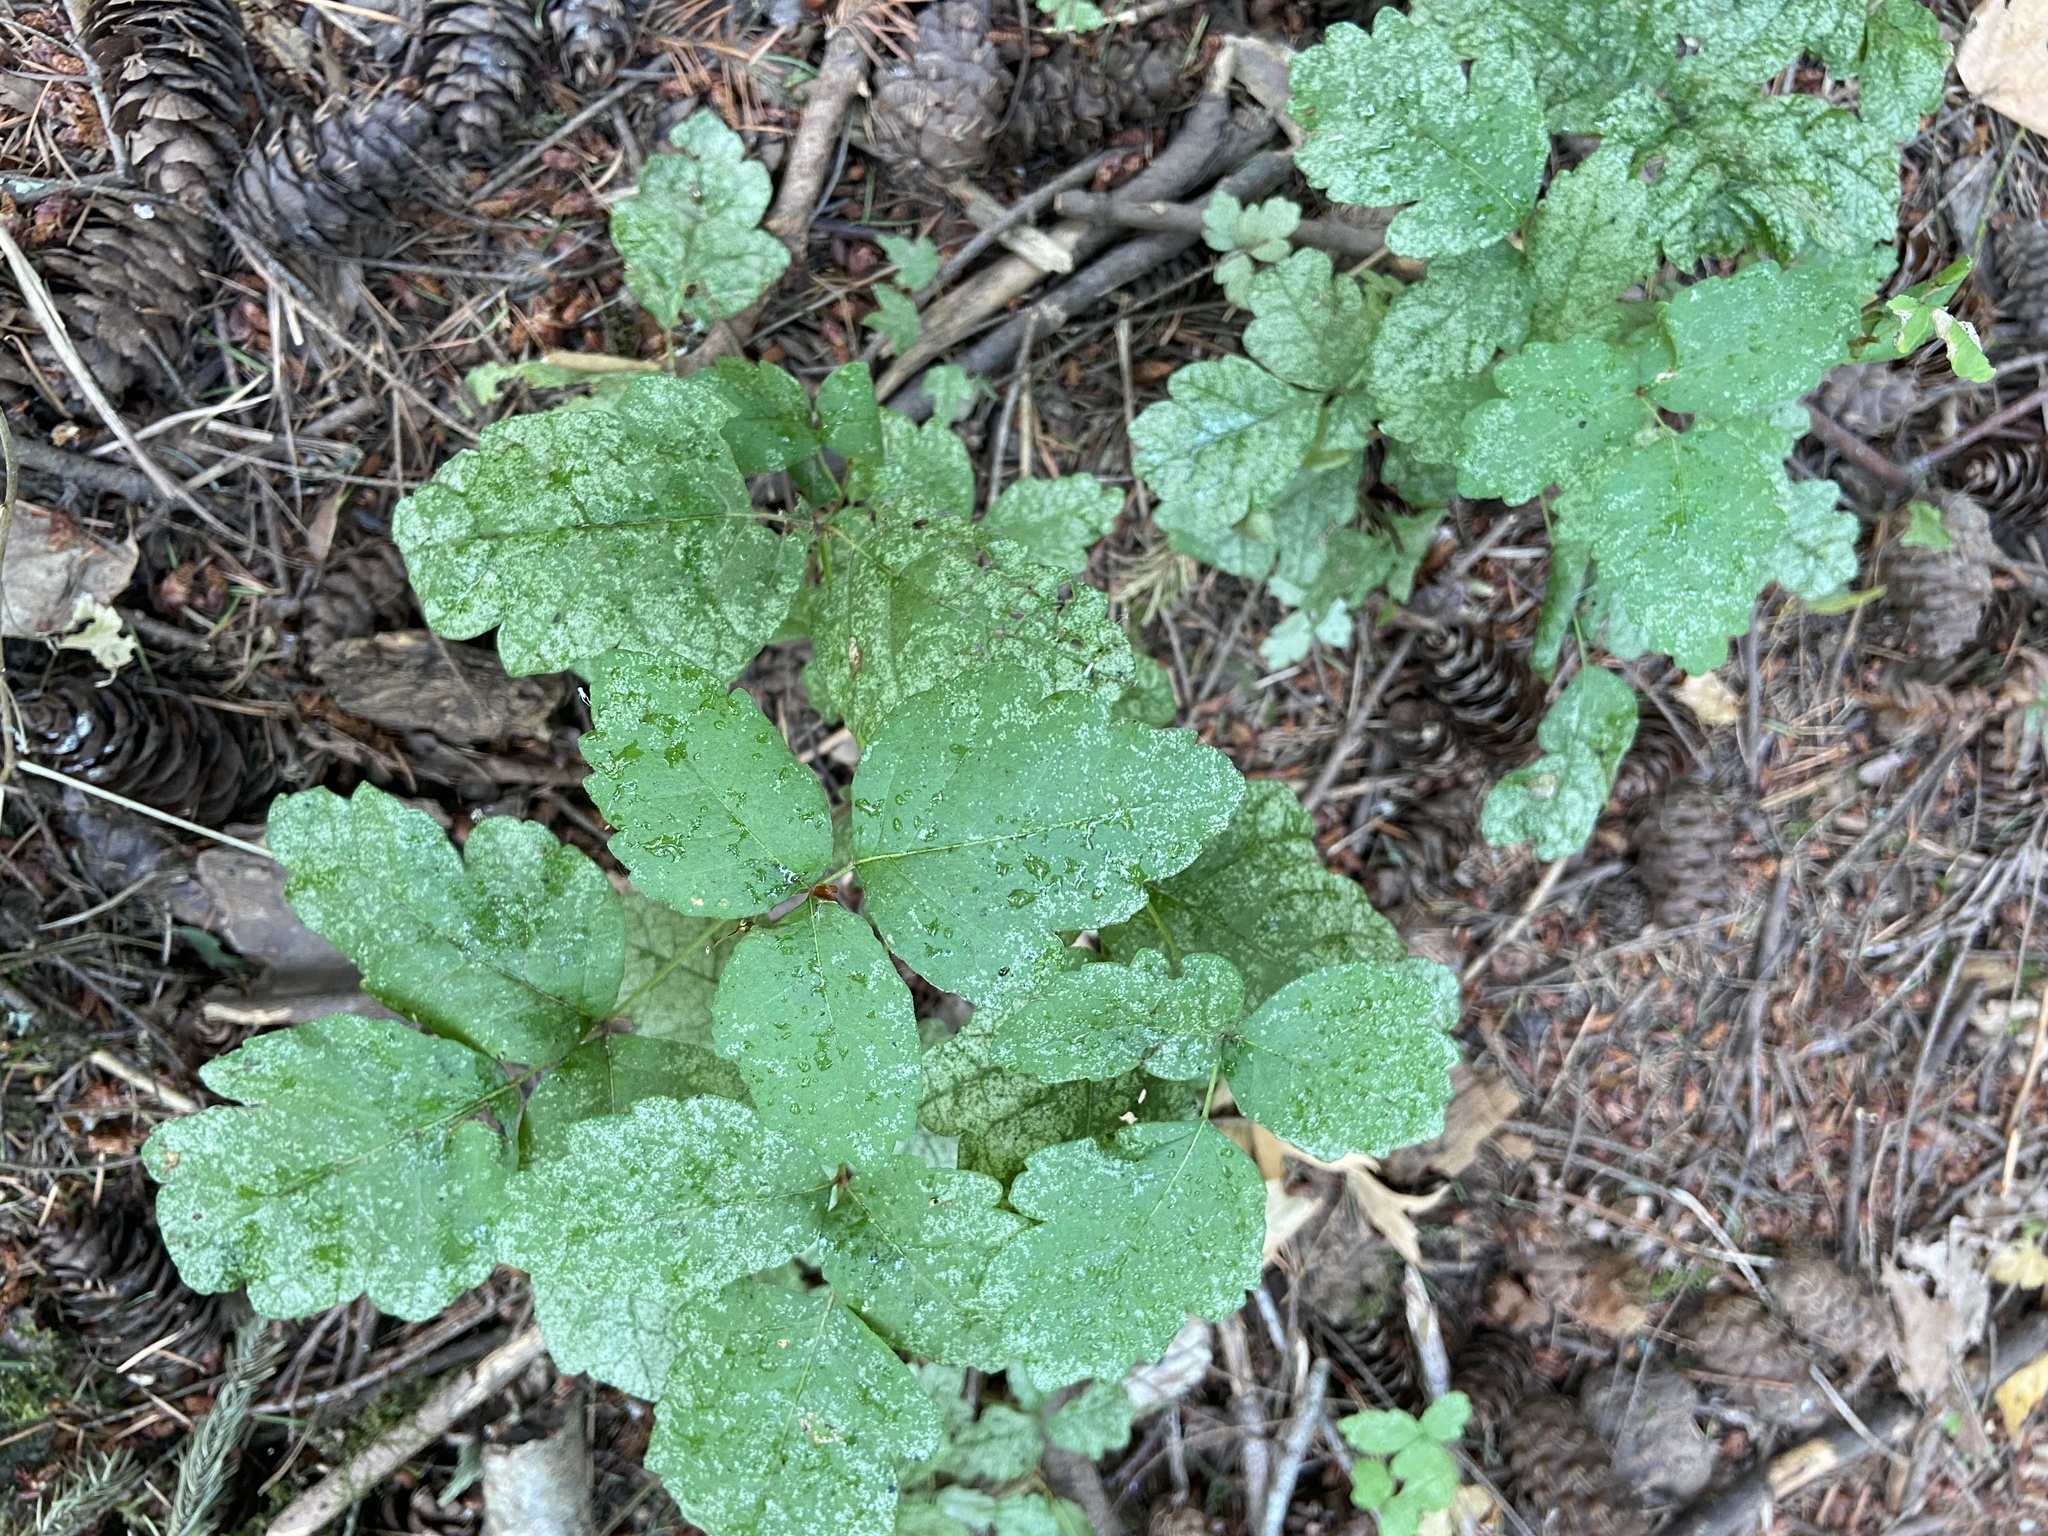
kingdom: Plantae
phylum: Tracheophyta
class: Magnoliopsida
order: Sapindales
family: Anacardiaceae
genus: Toxicodendron
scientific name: Toxicodendron diversilobum
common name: Pacific poison-oak
